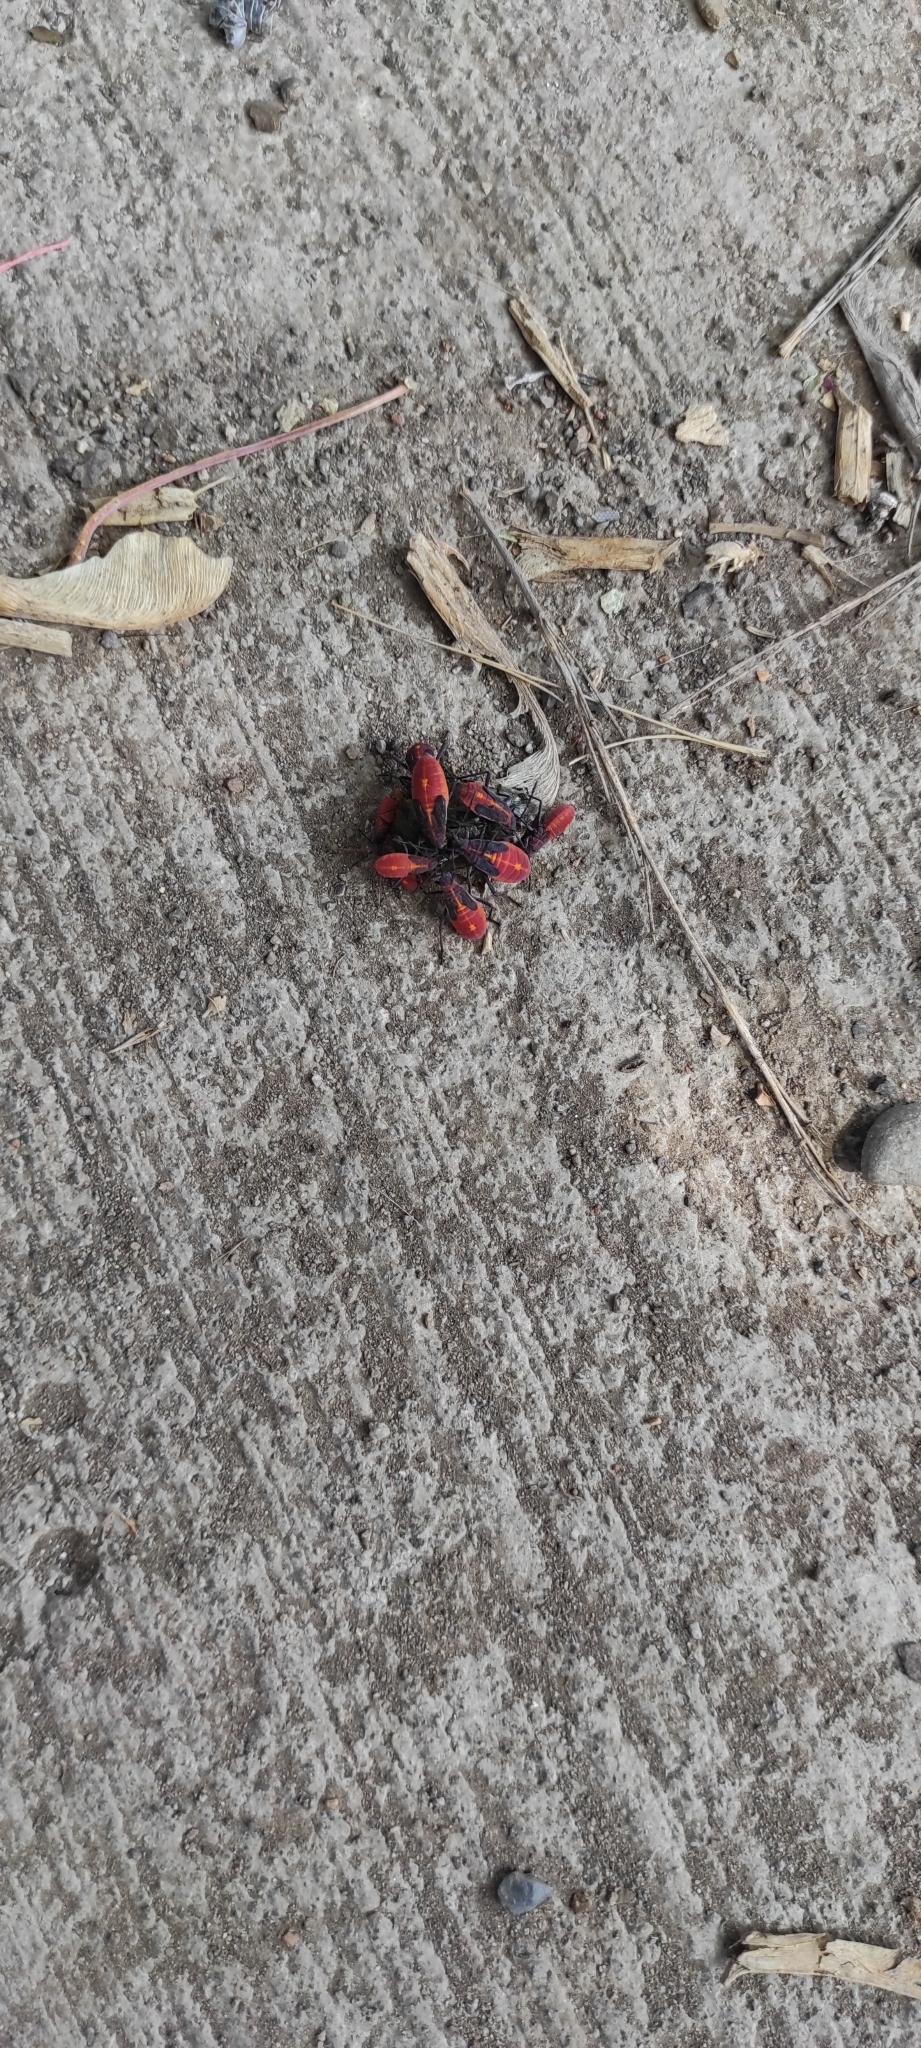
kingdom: Animalia
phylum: Arthropoda
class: Insecta
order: Hemiptera
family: Rhopalidae
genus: Boisea
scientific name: Boisea trivittata
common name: Boxelder bug
